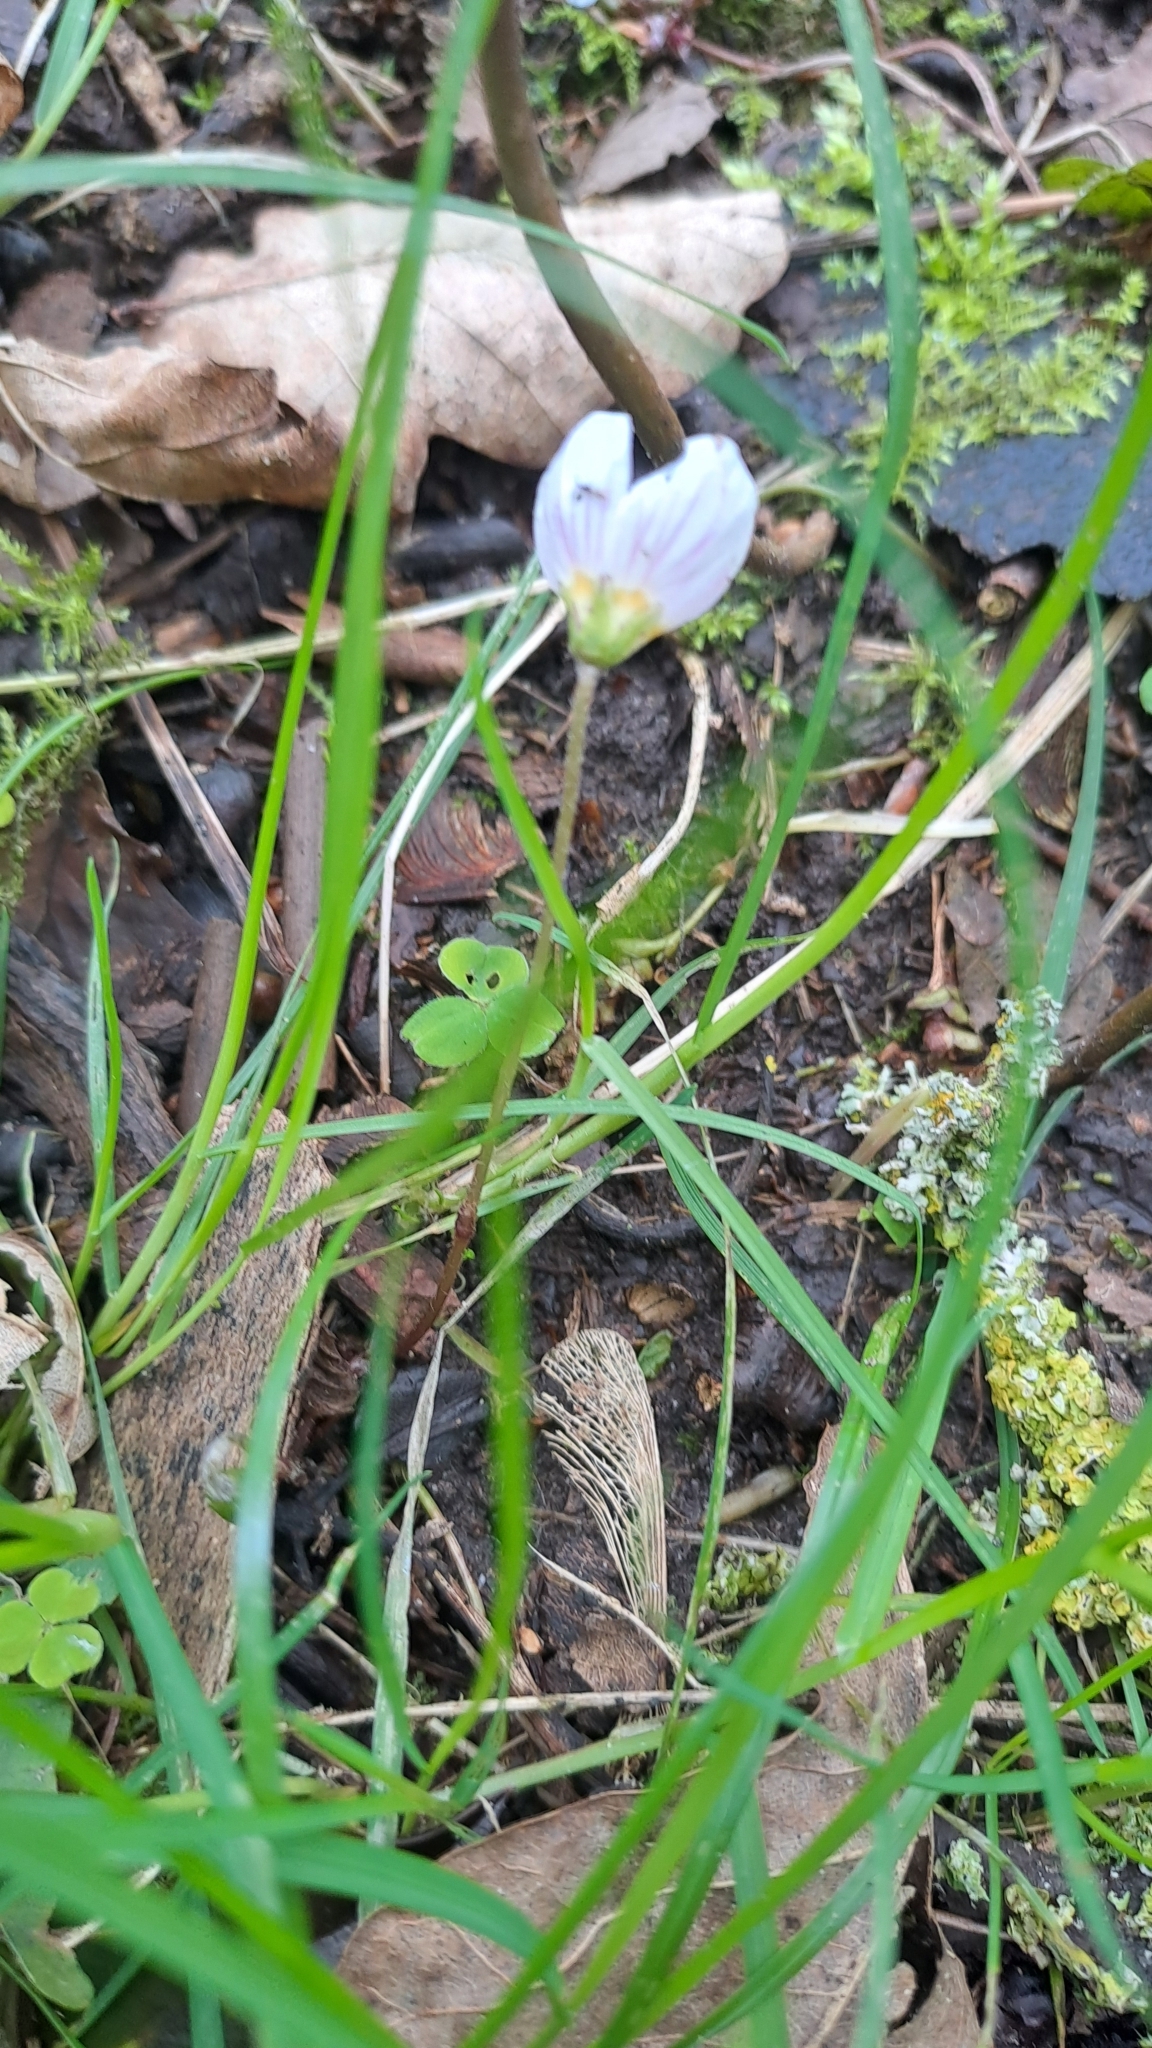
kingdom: Plantae
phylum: Tracheophyta
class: Magnoliopsida
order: Oxalidales
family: Oxalidaceae
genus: Oxalis
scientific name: Oxalis acetosella
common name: Wood-sorrel
